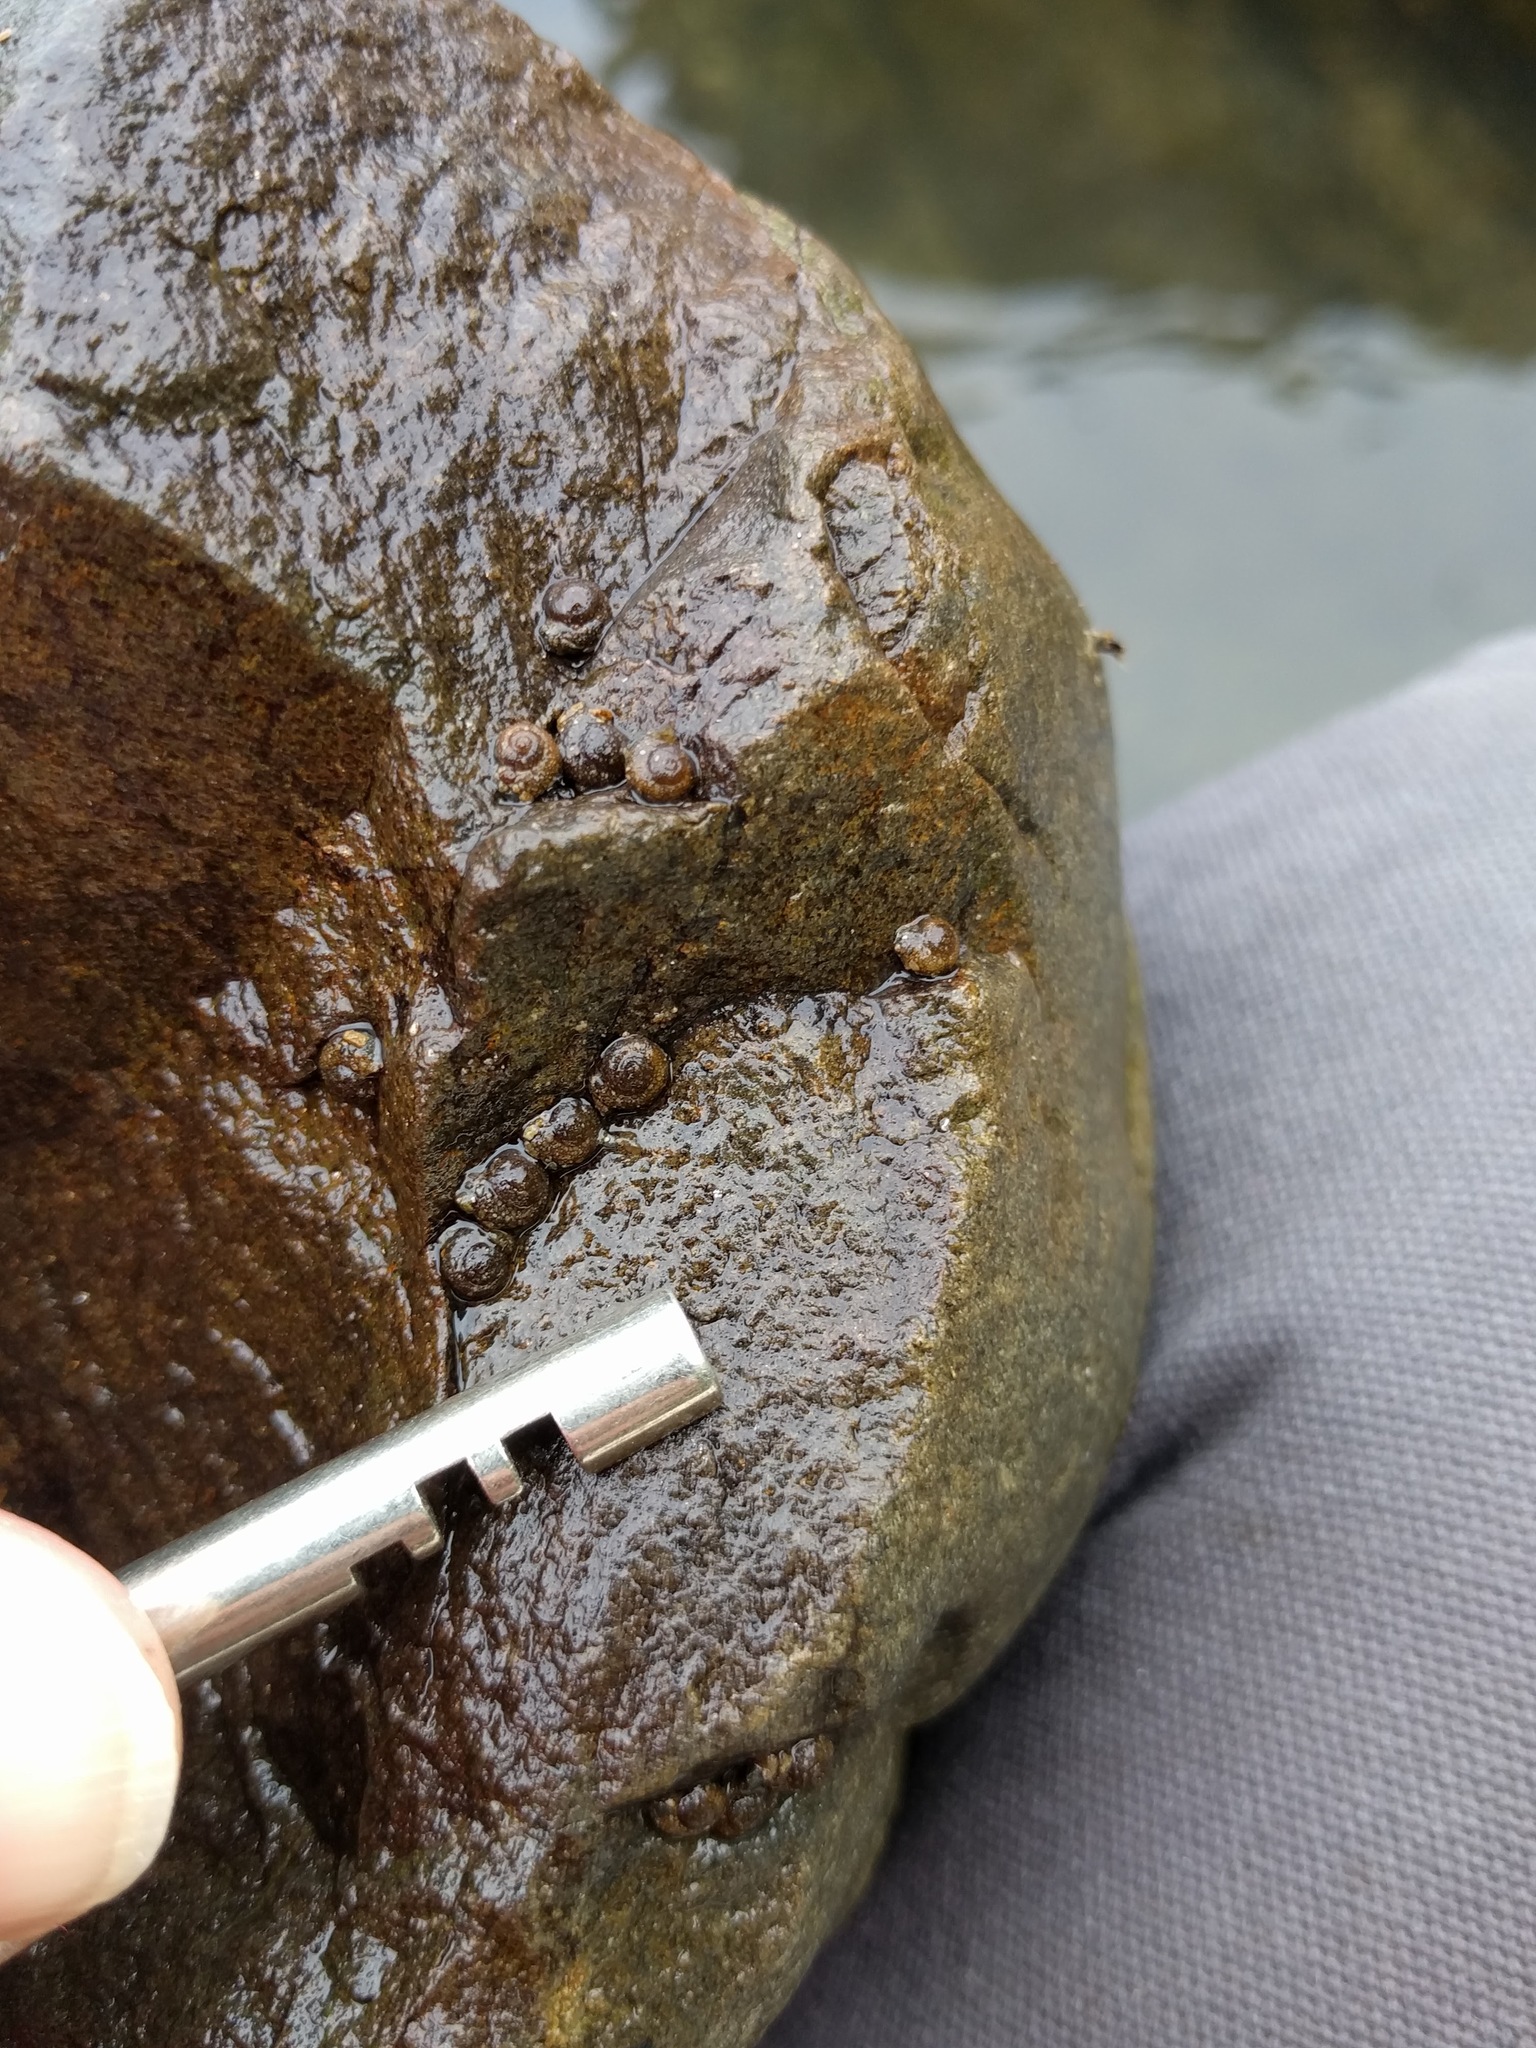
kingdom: Animalia
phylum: Arthropoda
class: Insecta
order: Trichoptera
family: Helicopsychidae
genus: Helicopsyche
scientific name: Helicopsyche zealandica
